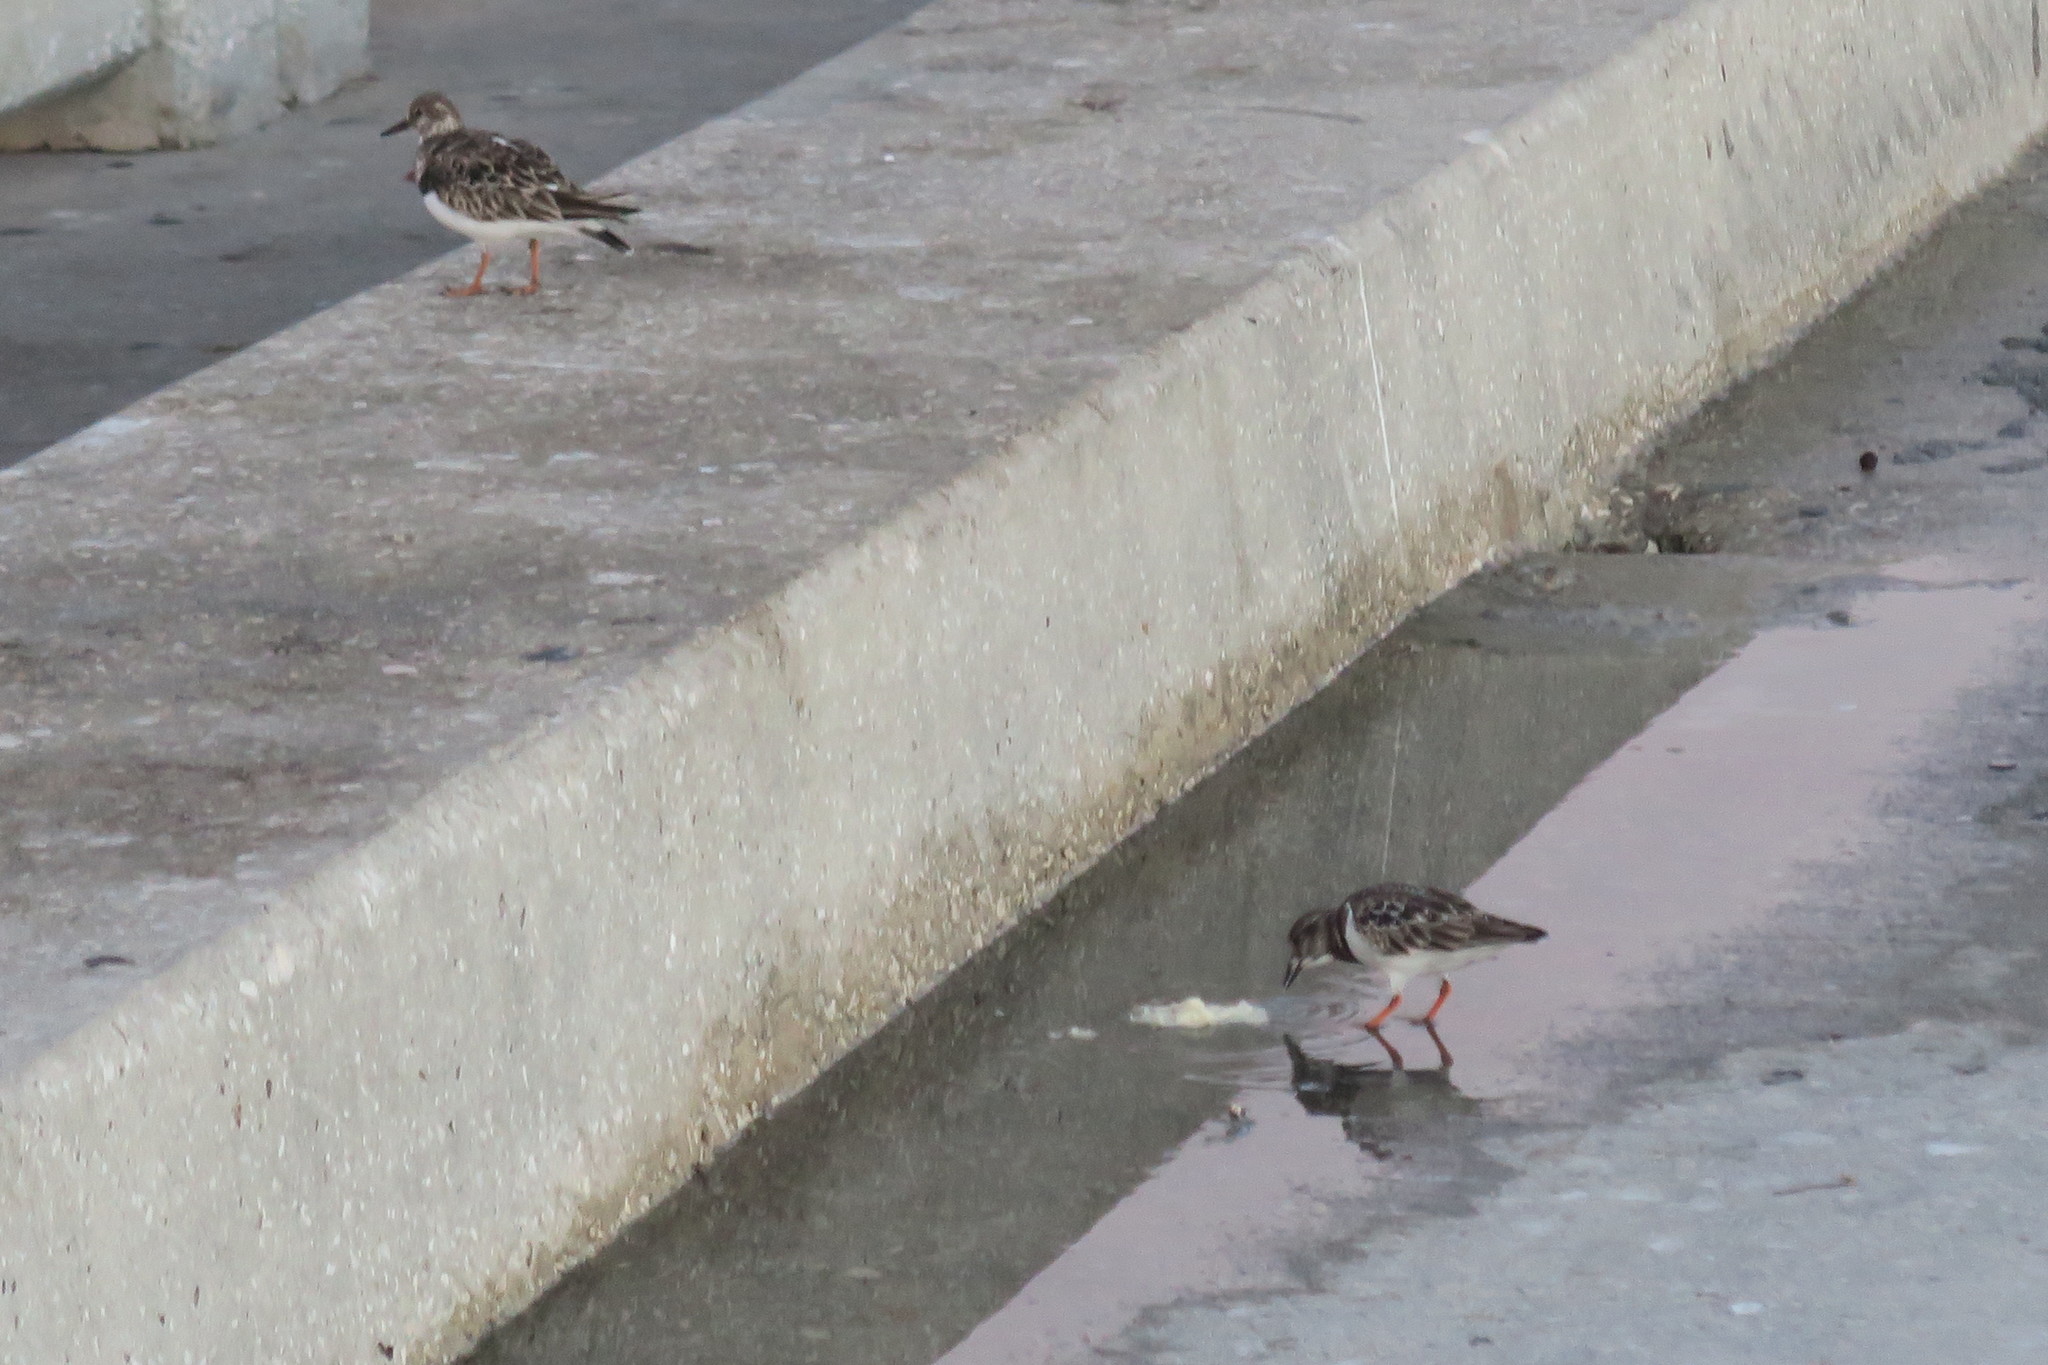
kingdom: Animalia
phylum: Chordata
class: Aves
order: Charadriiformes
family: Scolopacidae
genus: Arenaria
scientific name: Arenaria interpres
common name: Ruddy turnstone
